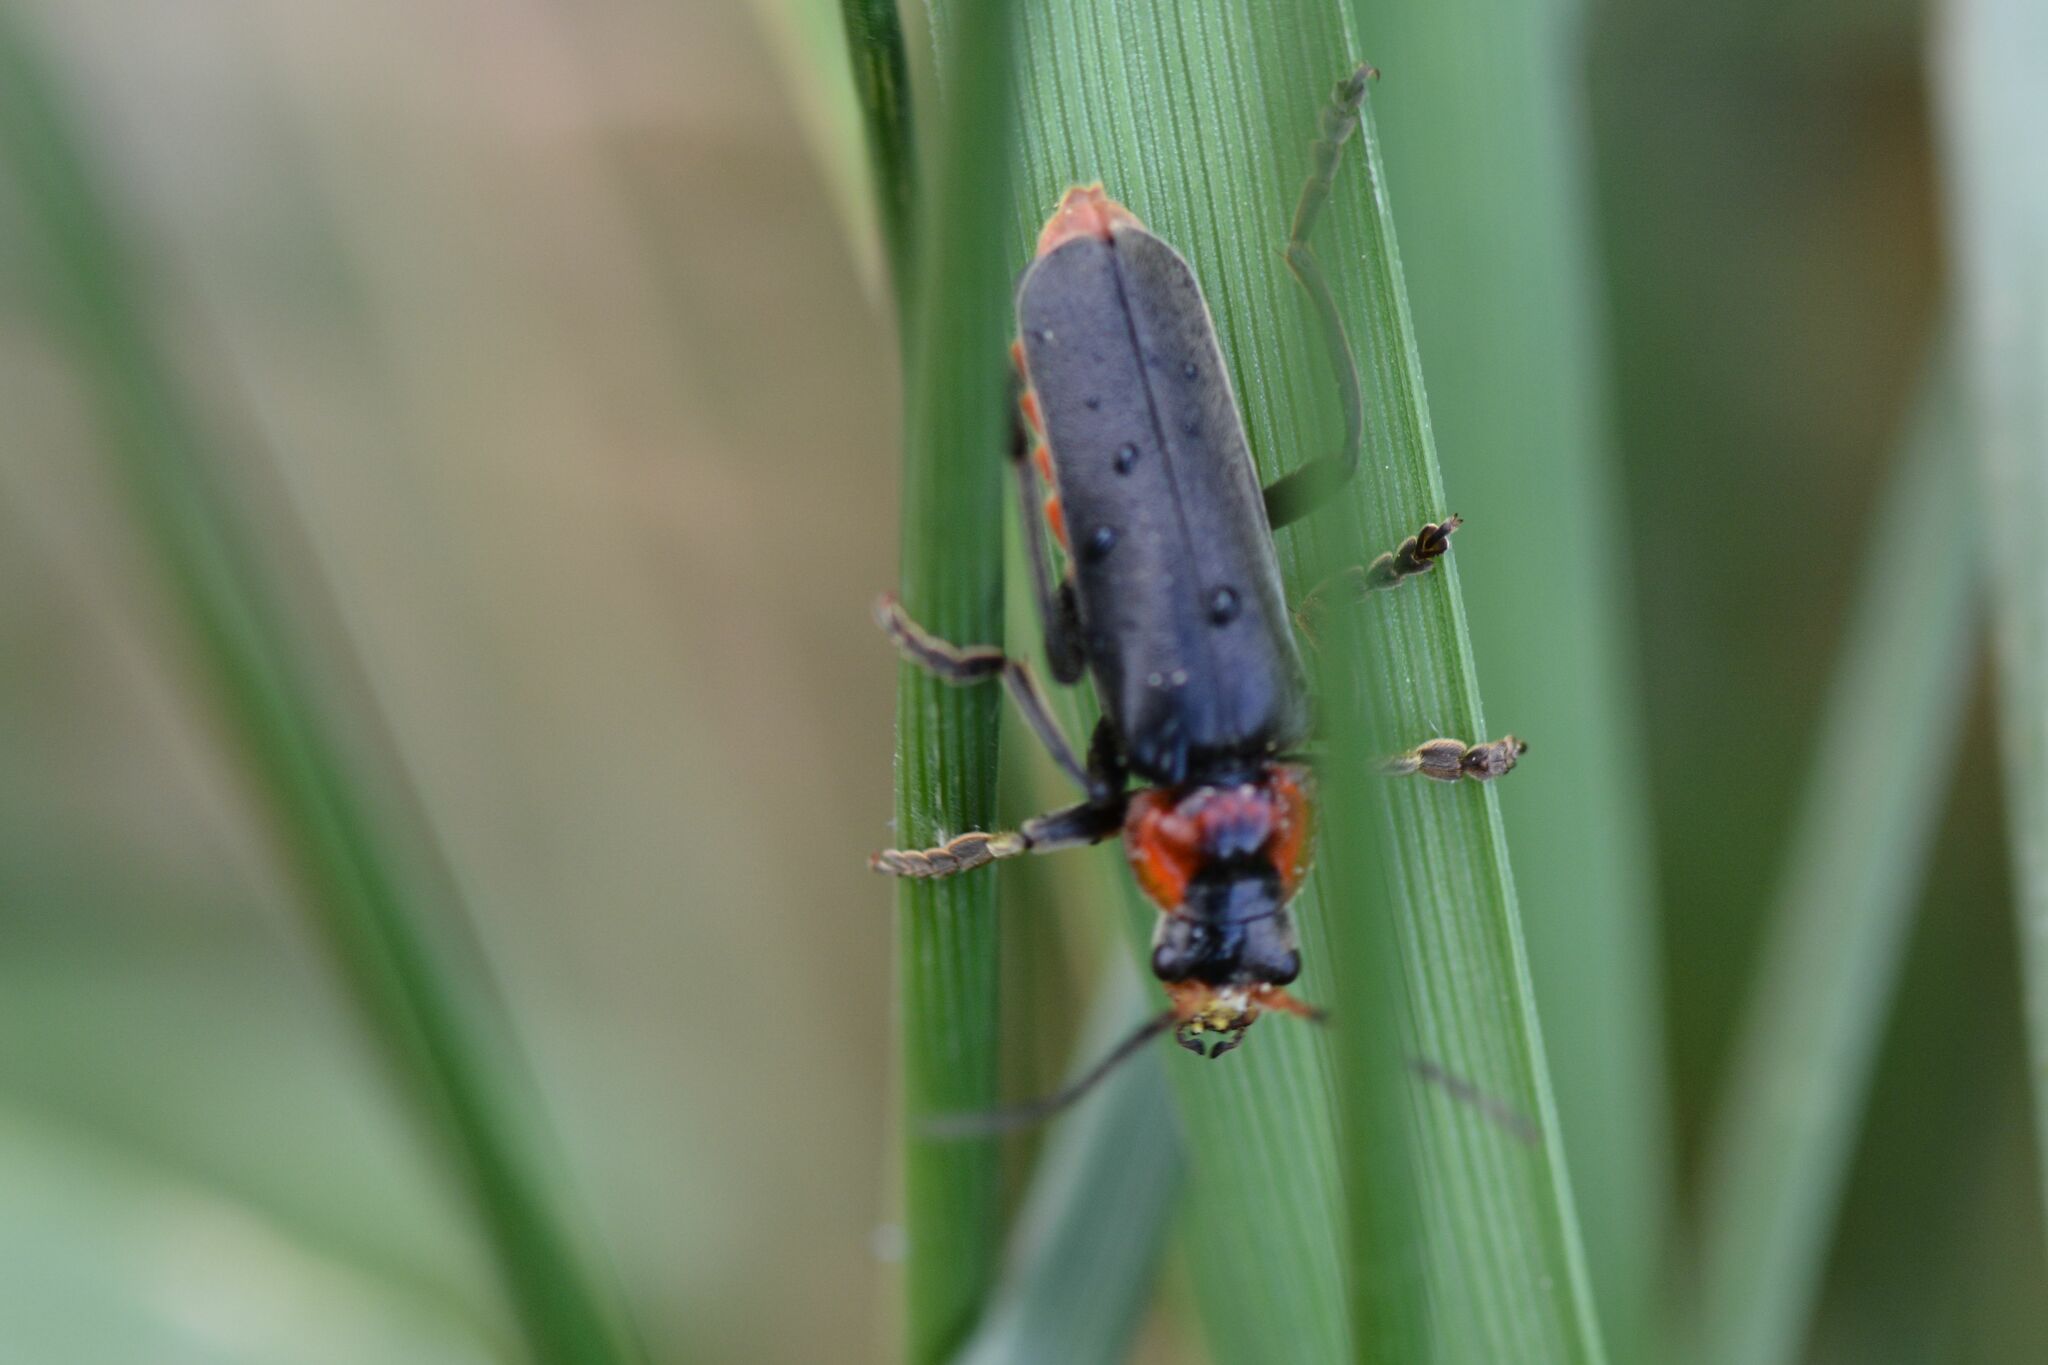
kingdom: Animalia
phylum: Arthropoda
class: Insecta
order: Coleoptera
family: Cantharidae
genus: Cantharis
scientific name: Cantharis fusca
